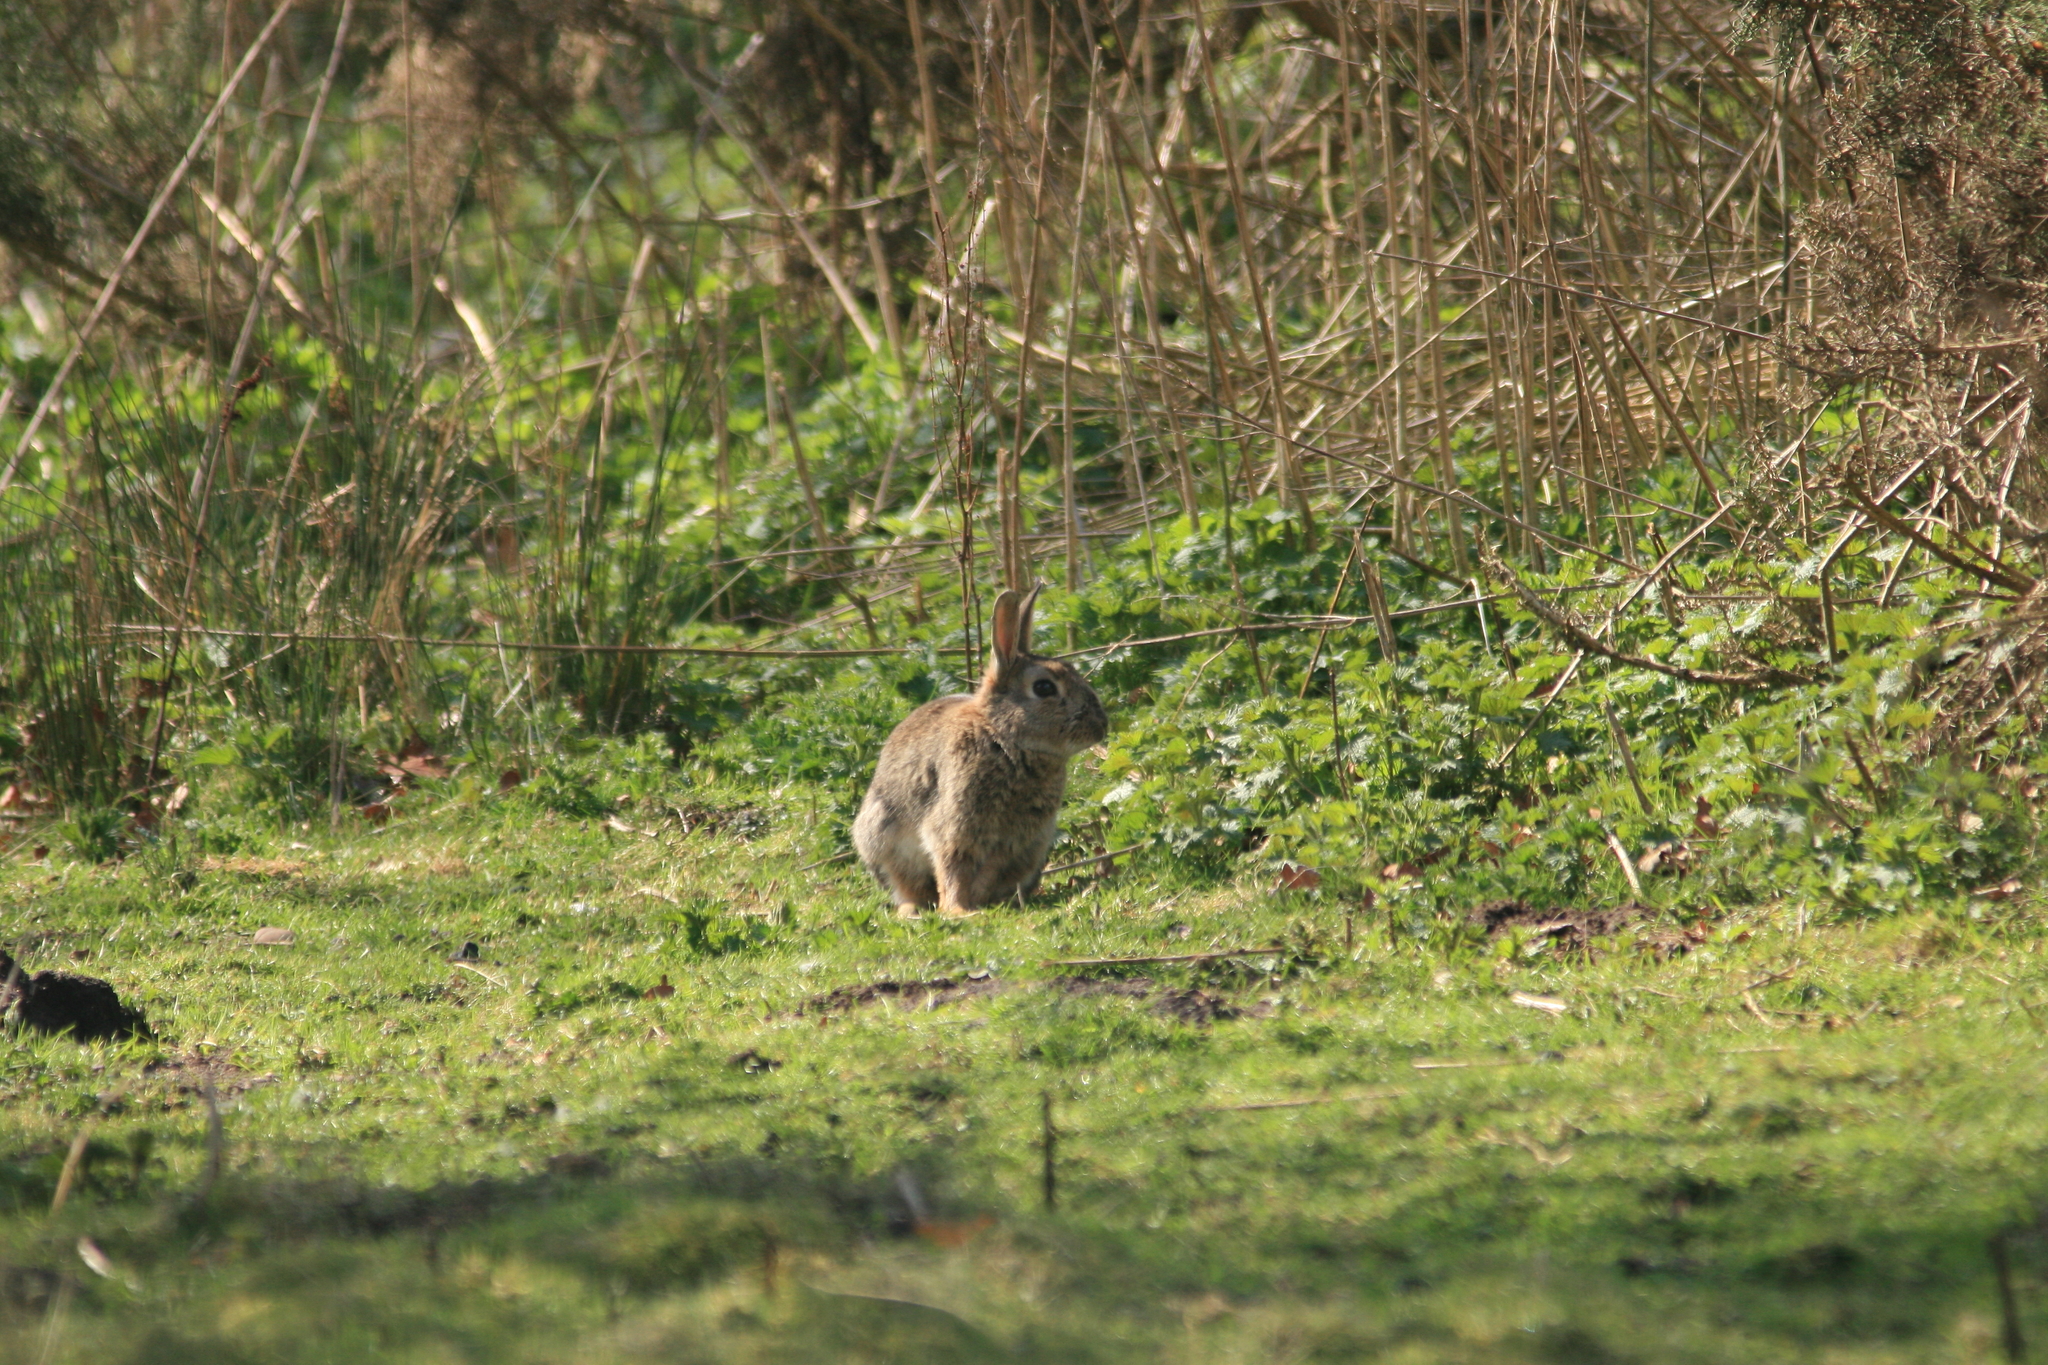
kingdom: Animalia
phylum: Chordata
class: Mammalia
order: Lagomorpha
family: Leporidae
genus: Oryctolagus
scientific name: Oryctolagus cuniculus
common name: European rabbit
